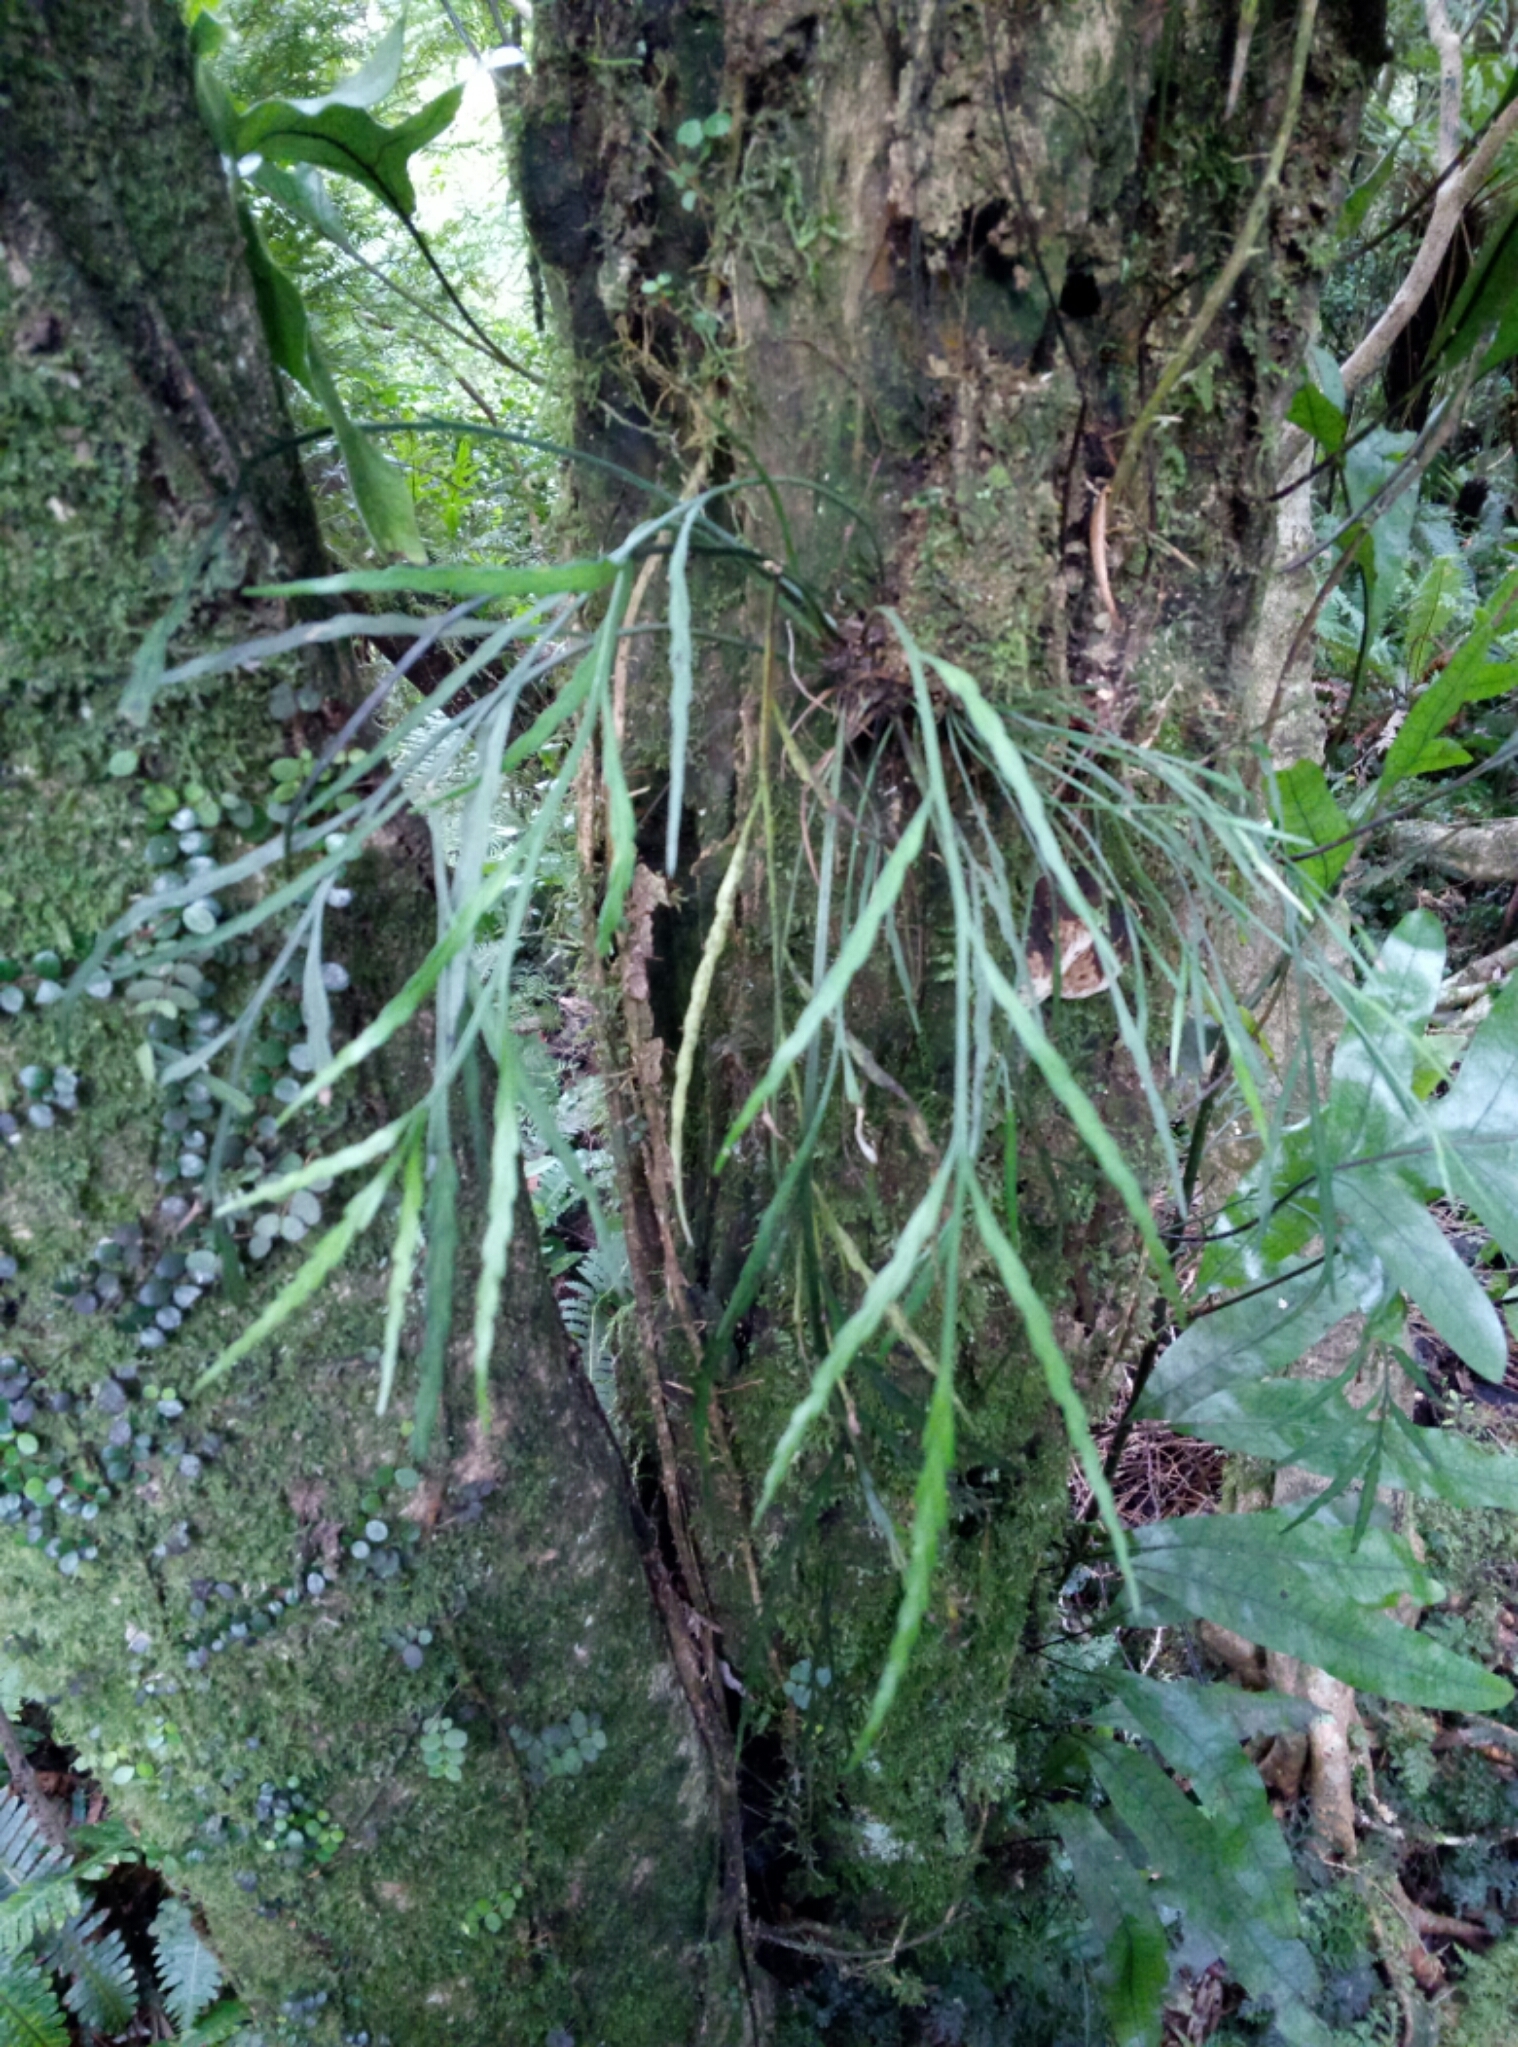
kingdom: Plantae
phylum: Tracheophyta
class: Polypodiopsida
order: Polypodiales
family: Aspleniaceae
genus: Asplenium
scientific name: Asplenium flaccidum
